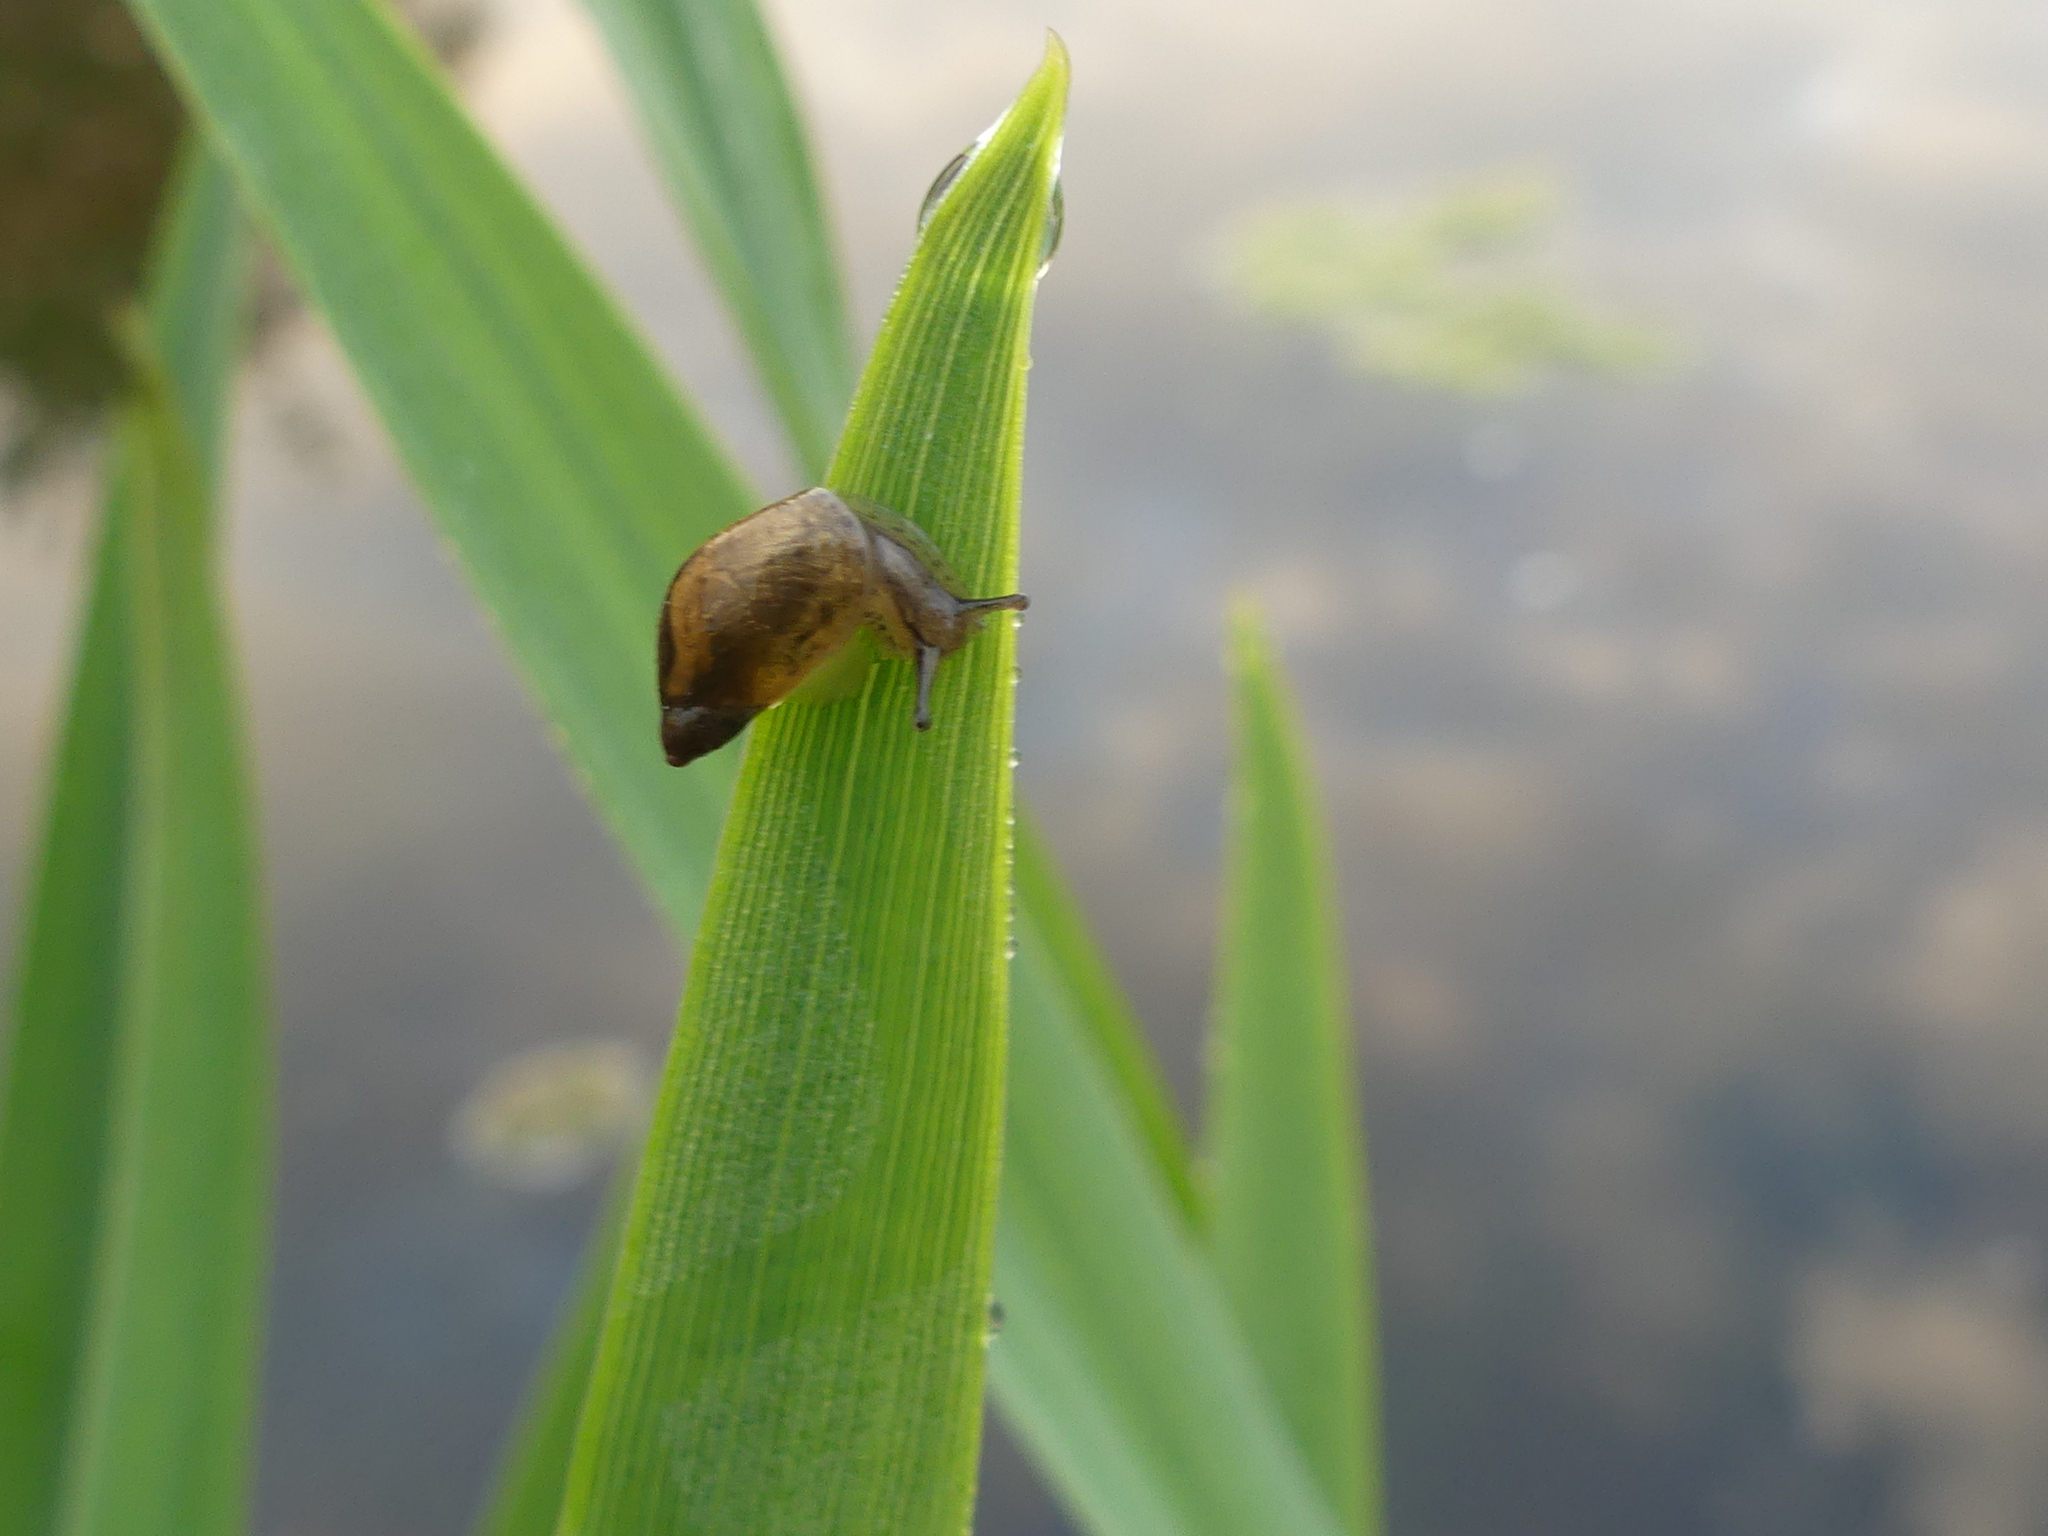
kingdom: Animalia
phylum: Mollusca
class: Gastropoda
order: Stylommatophora
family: Succineidae
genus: Succinea
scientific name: Succinea putris
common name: European ambersnail
